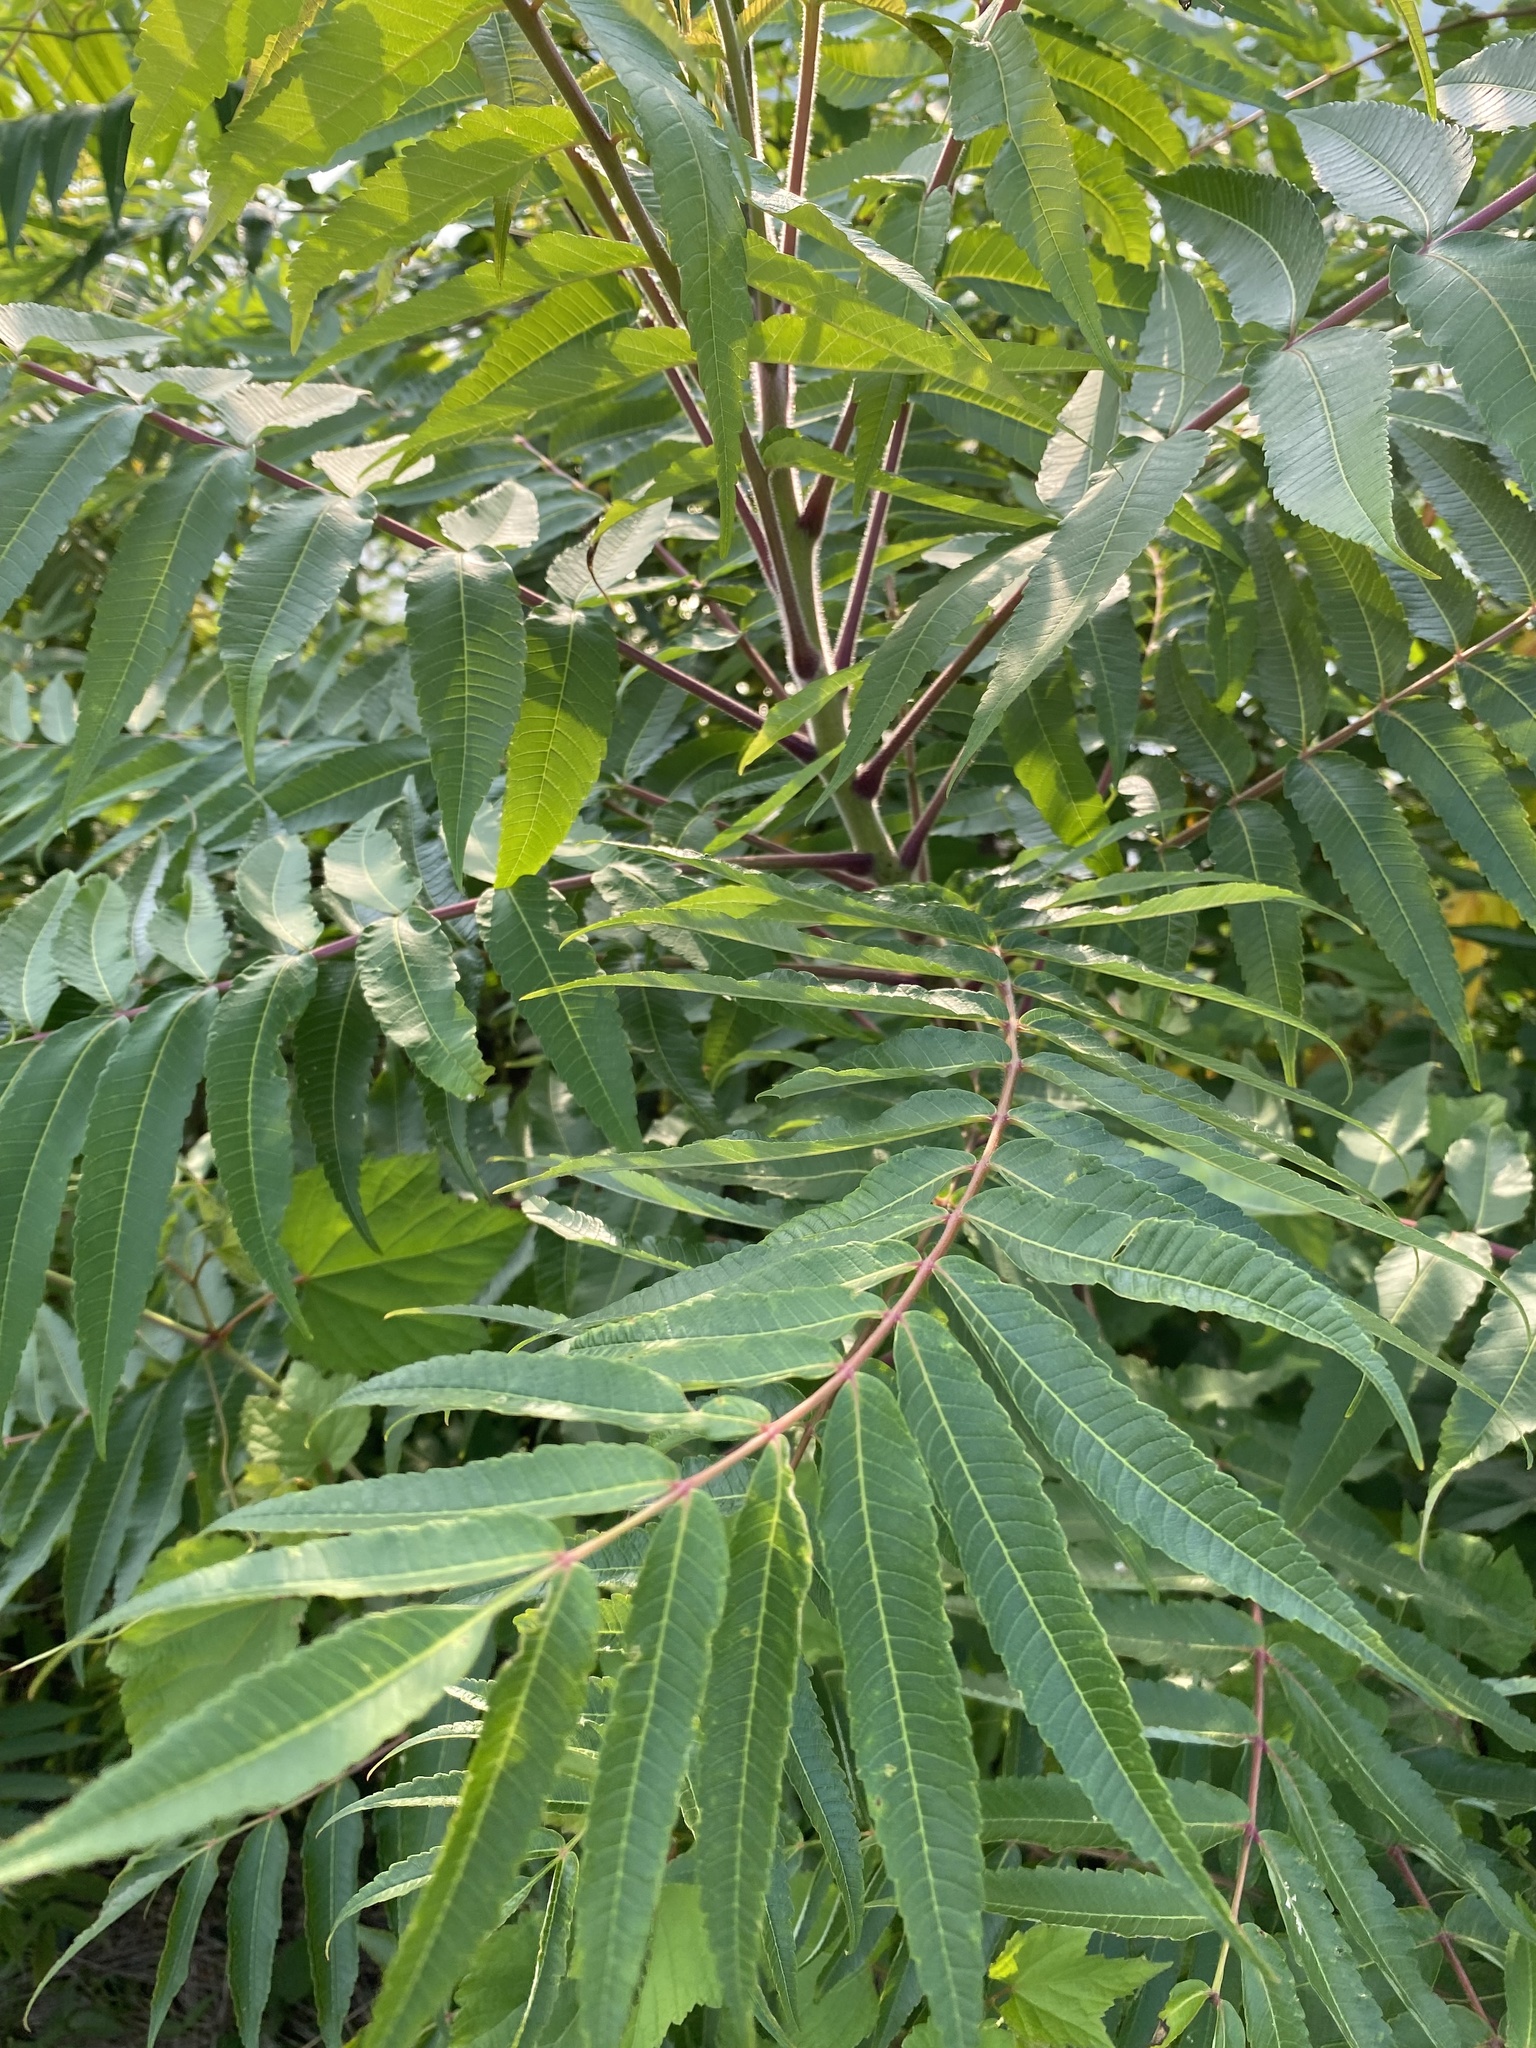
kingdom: Plantae
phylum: Tracheophyta
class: Magnoliopsida
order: Sapindales
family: Anacardiaceae
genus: Rhus
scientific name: Rhus typhina
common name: Staghorn sumac
